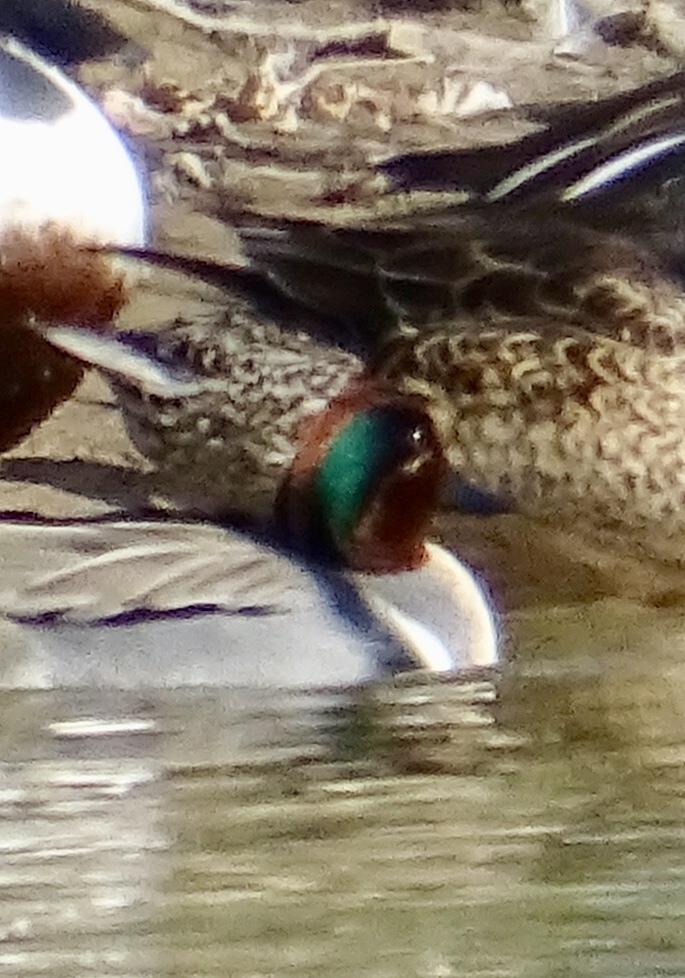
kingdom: Animalia
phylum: Chordata
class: Aves
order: Anseriformes
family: Anatidae
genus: Anas
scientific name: Anas crecca
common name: Eurasian teal
